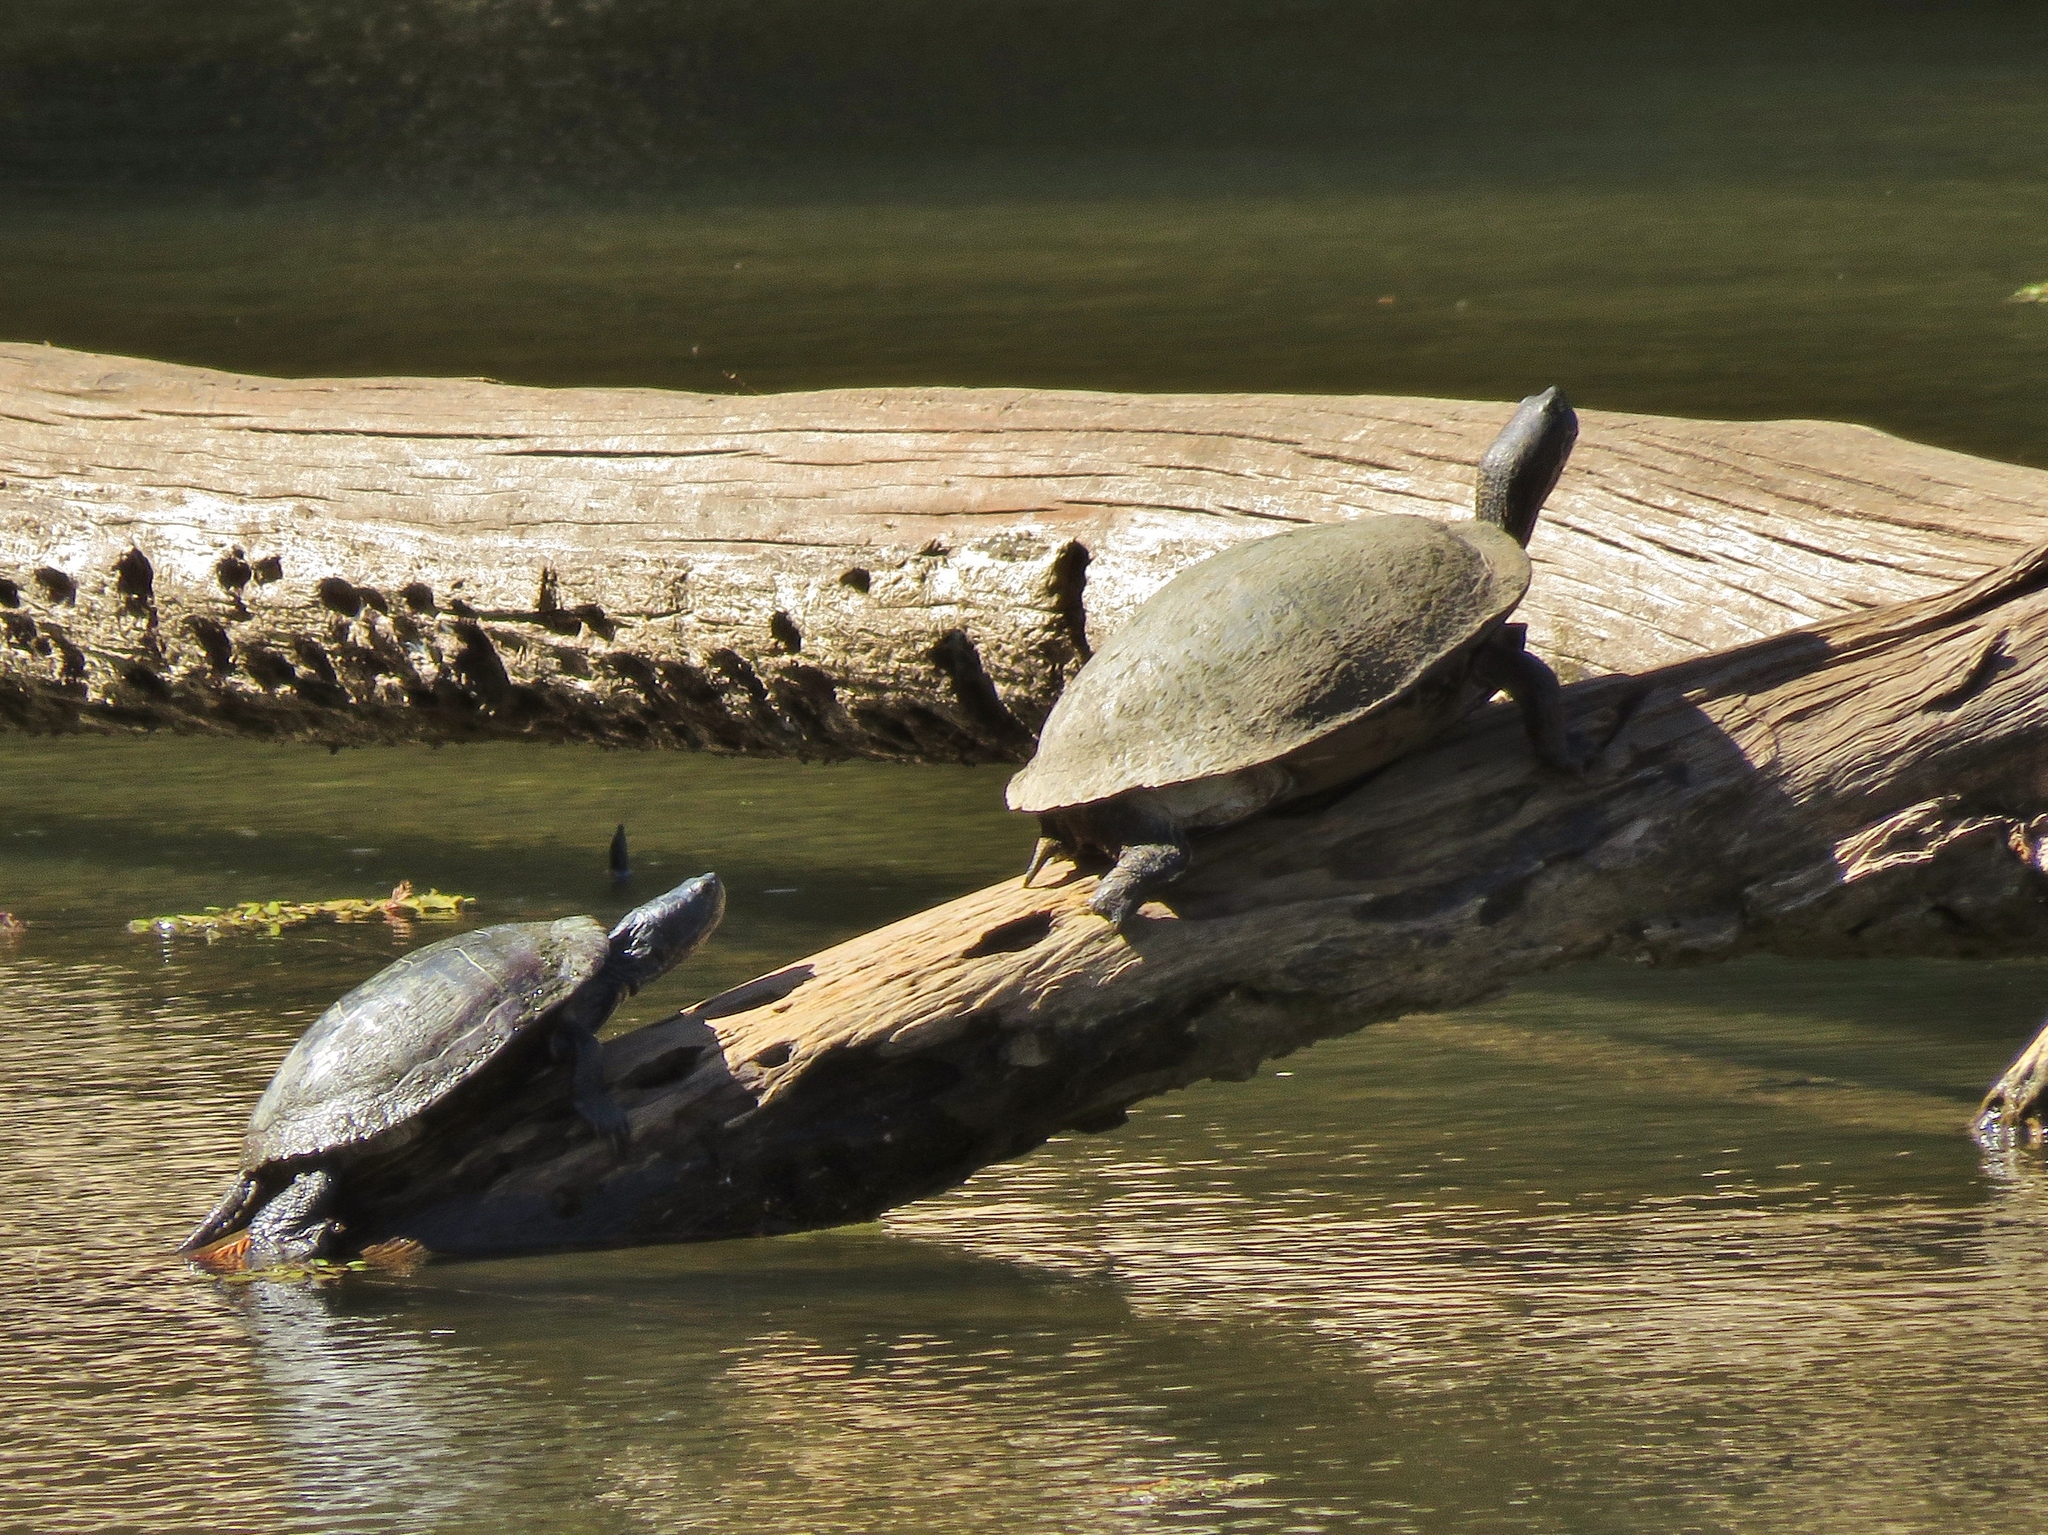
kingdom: Animalia
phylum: Chordata
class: Testudines
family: Emydidae
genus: Trachemys
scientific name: Trachemys scripta
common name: Slider
